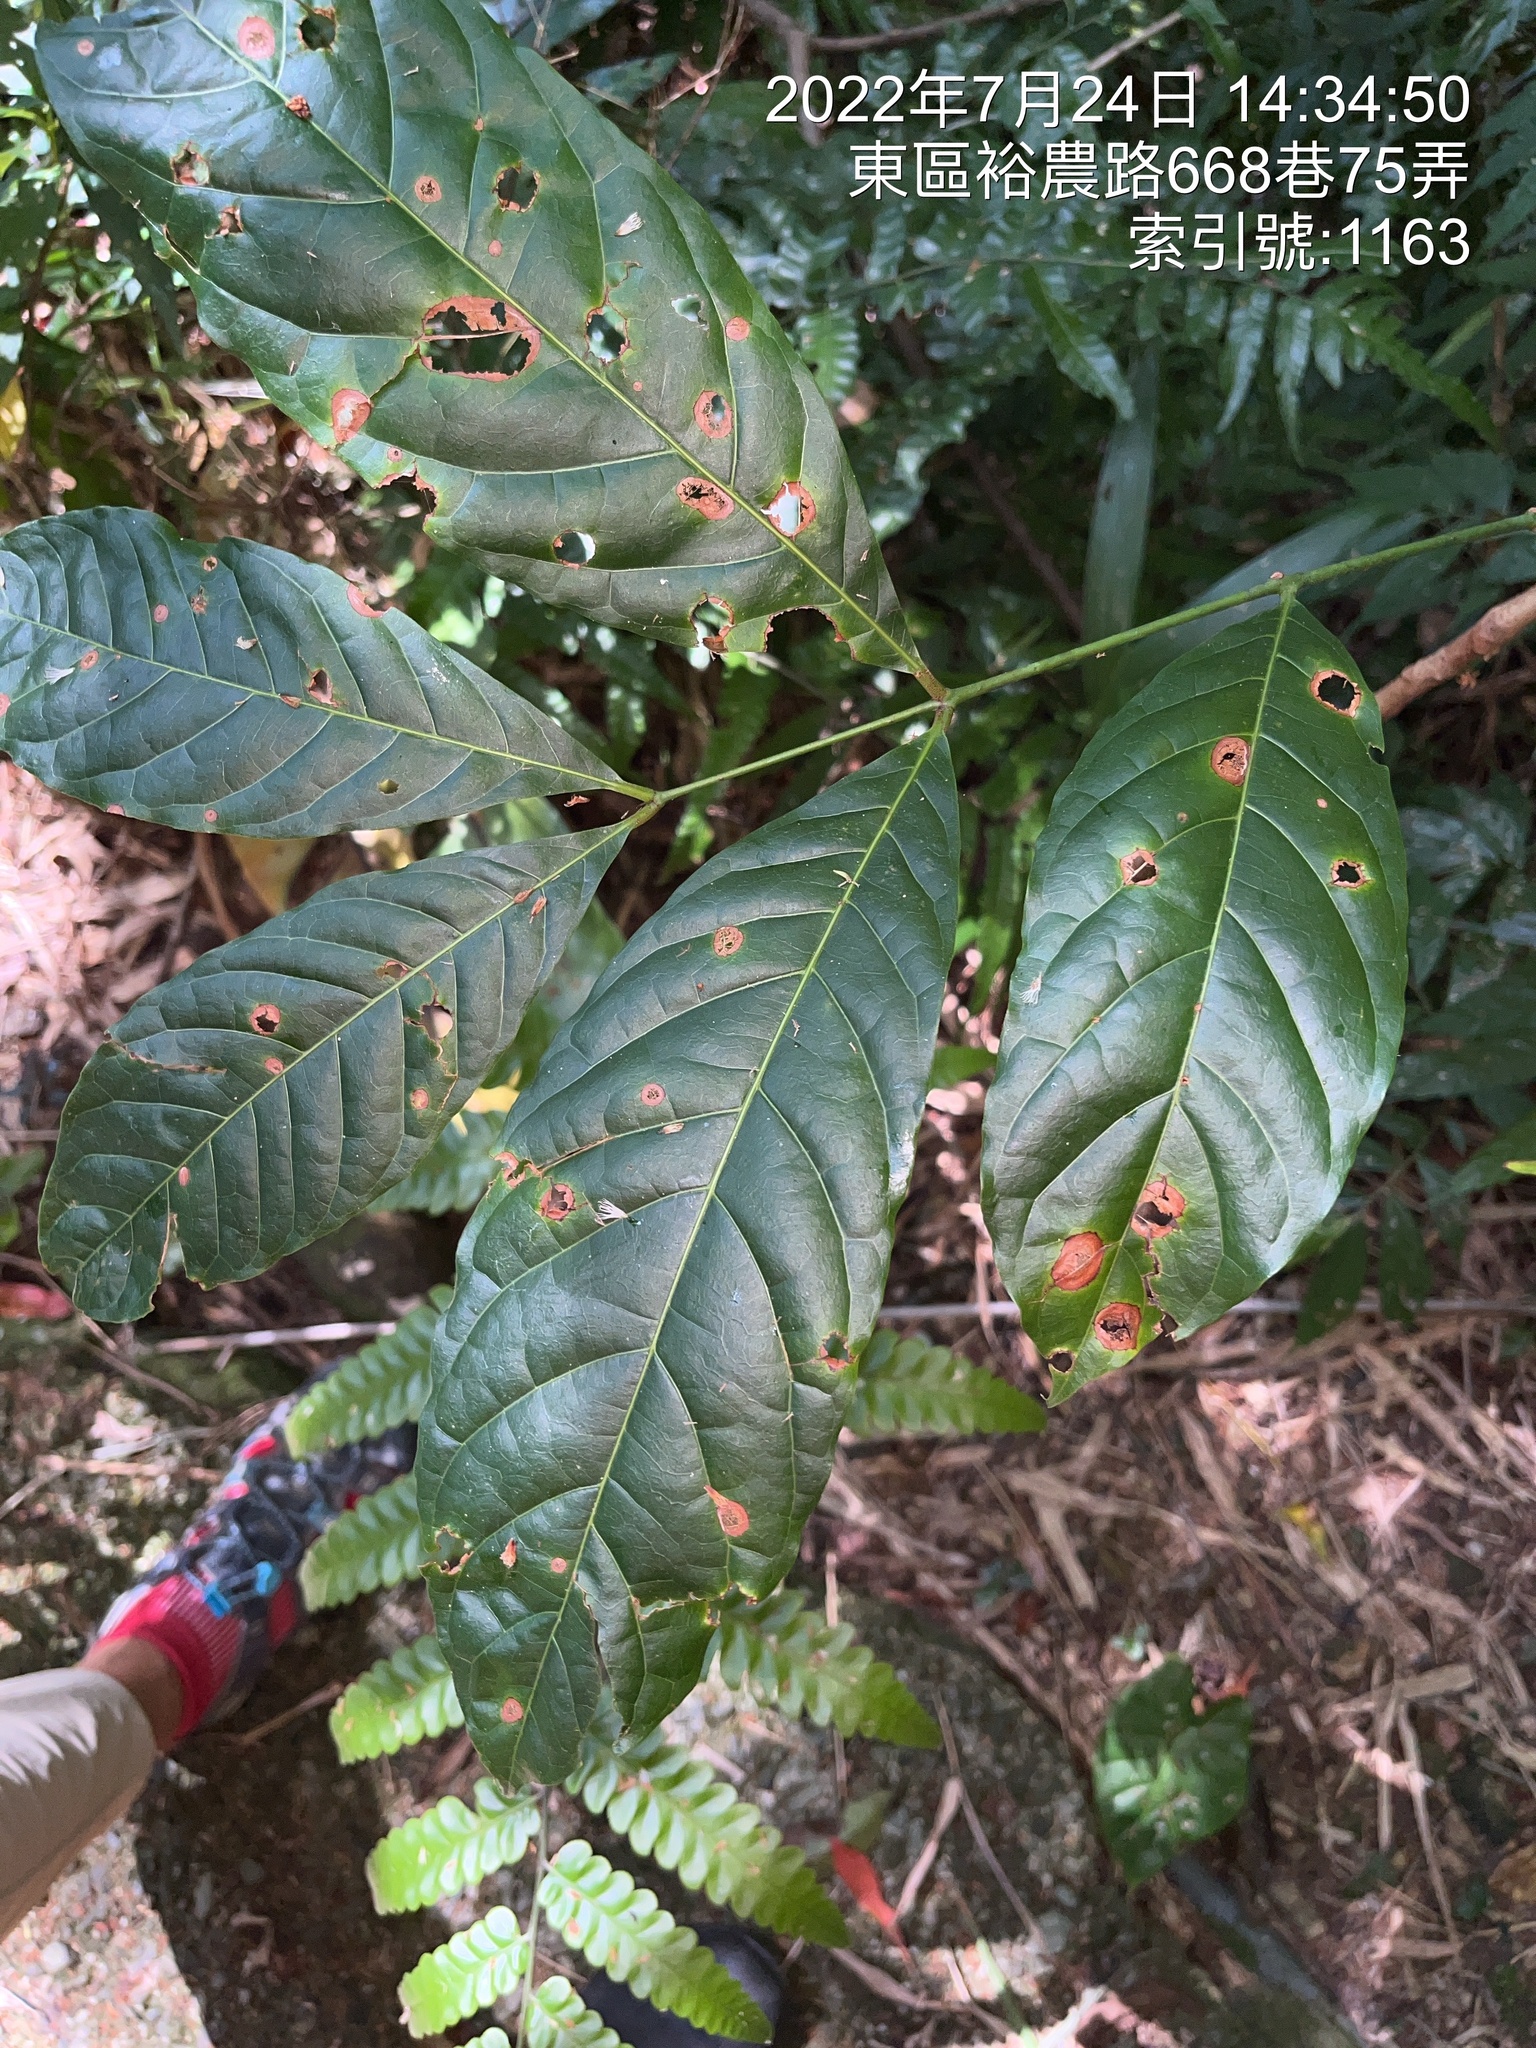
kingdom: Plantae
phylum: Tracheophyta
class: Magnoliopsida
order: Sapindales
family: Meliaceae
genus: Swietenia
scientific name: Swietenia macrophylla
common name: Honduras mahogany
